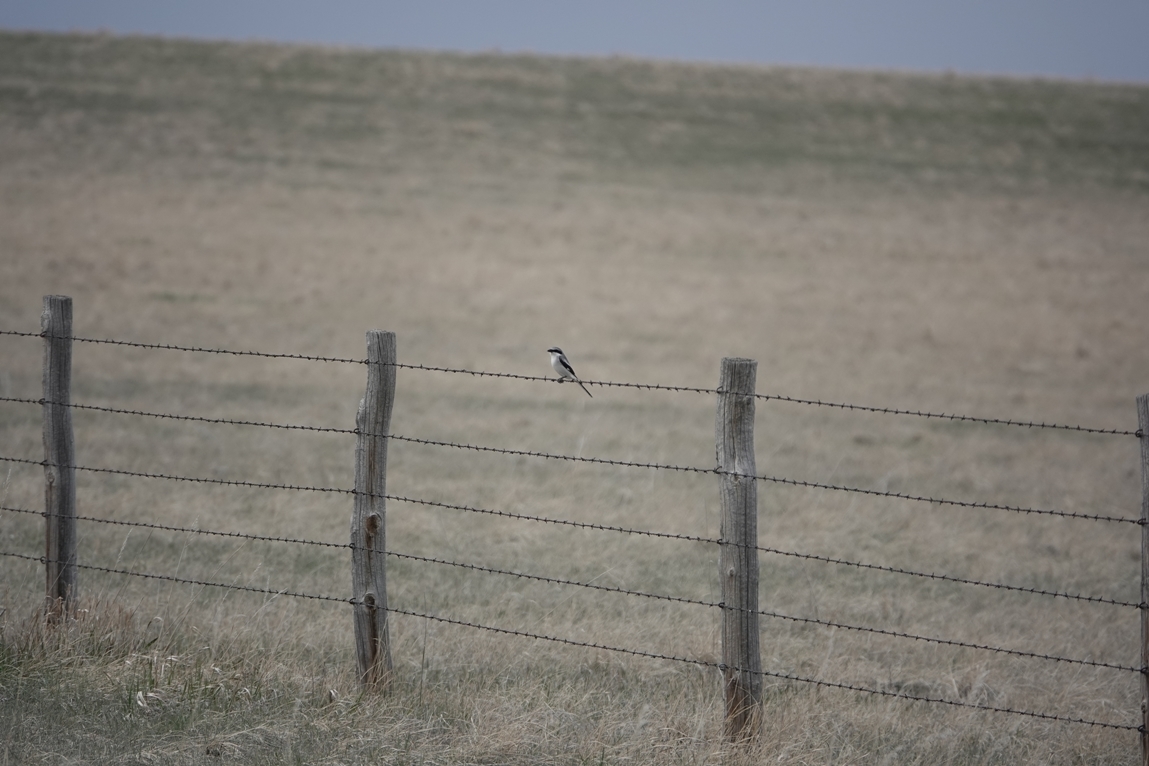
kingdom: Animalia
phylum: Chordata
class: Aves
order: Passeriformes
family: Laniidae
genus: Lanius
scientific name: Lanius ludovicianus
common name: Loggerhead shrike
